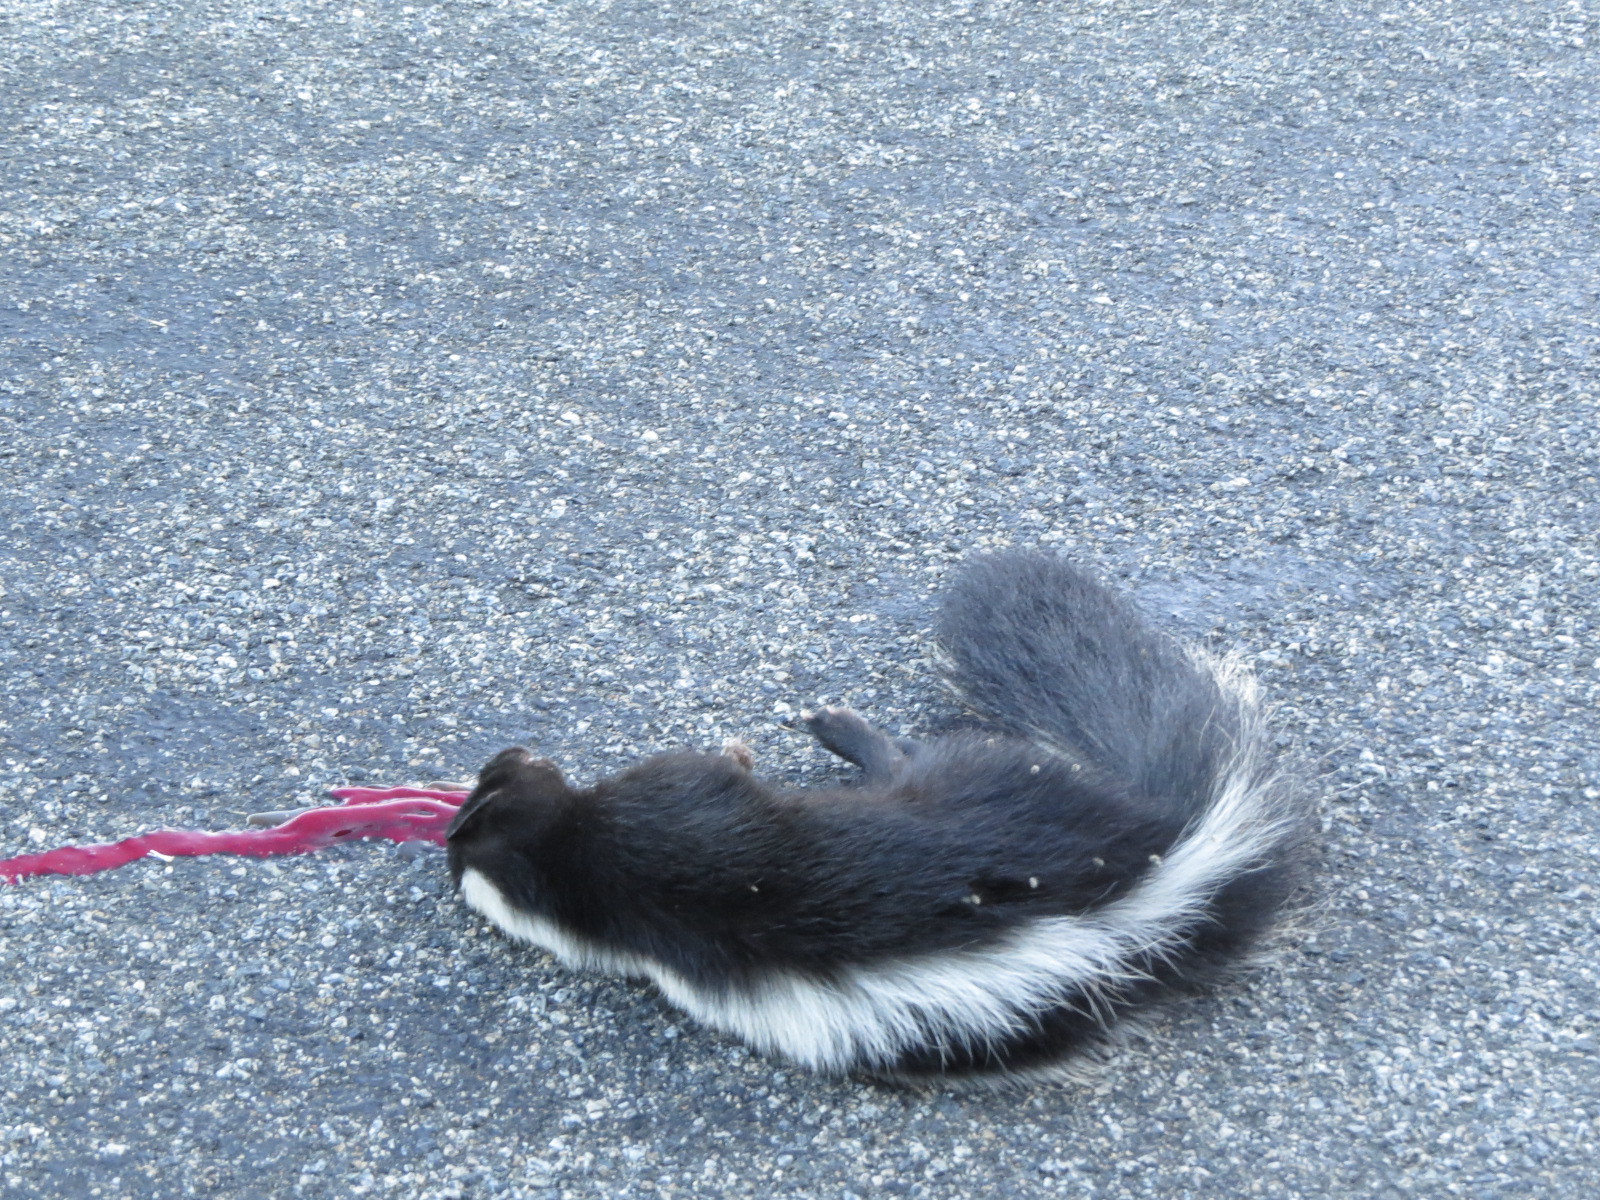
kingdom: Animalia
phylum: Chordata
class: Mammalia
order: Carnivora
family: Mephitidae
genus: Mephitis
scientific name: Mephitis mephitis
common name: Striped skunk
